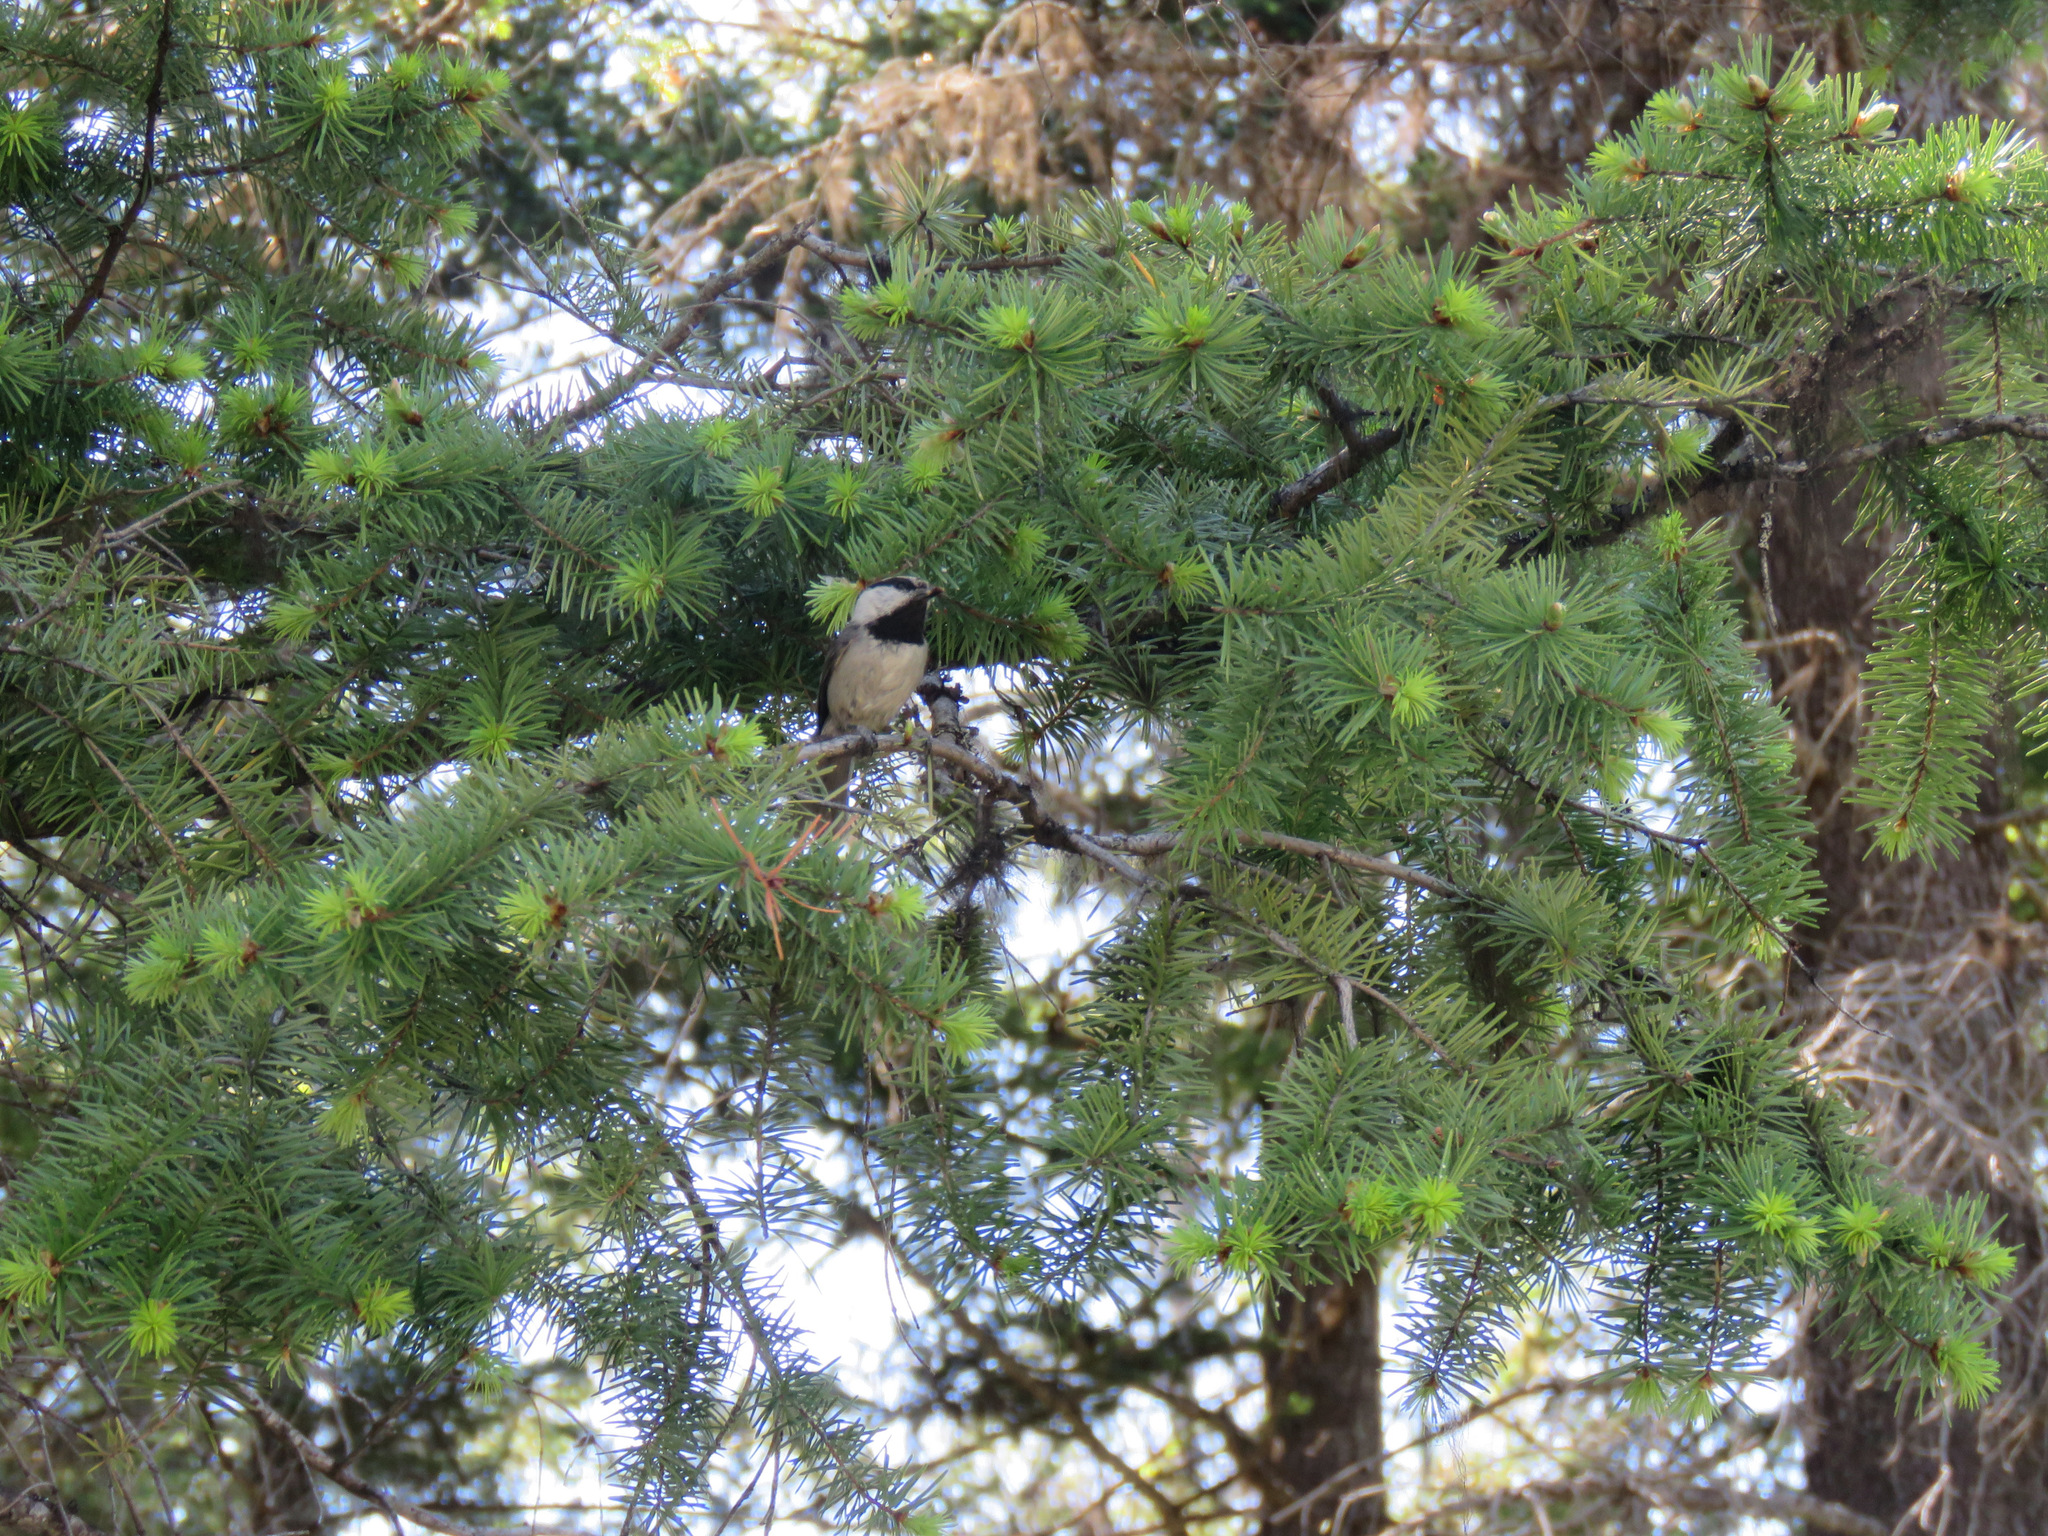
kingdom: Animalia
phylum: Chordata
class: Aves
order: Passeriformes
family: Paridae
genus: Poecile
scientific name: Poecile gambeli
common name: Mountain chickadee
